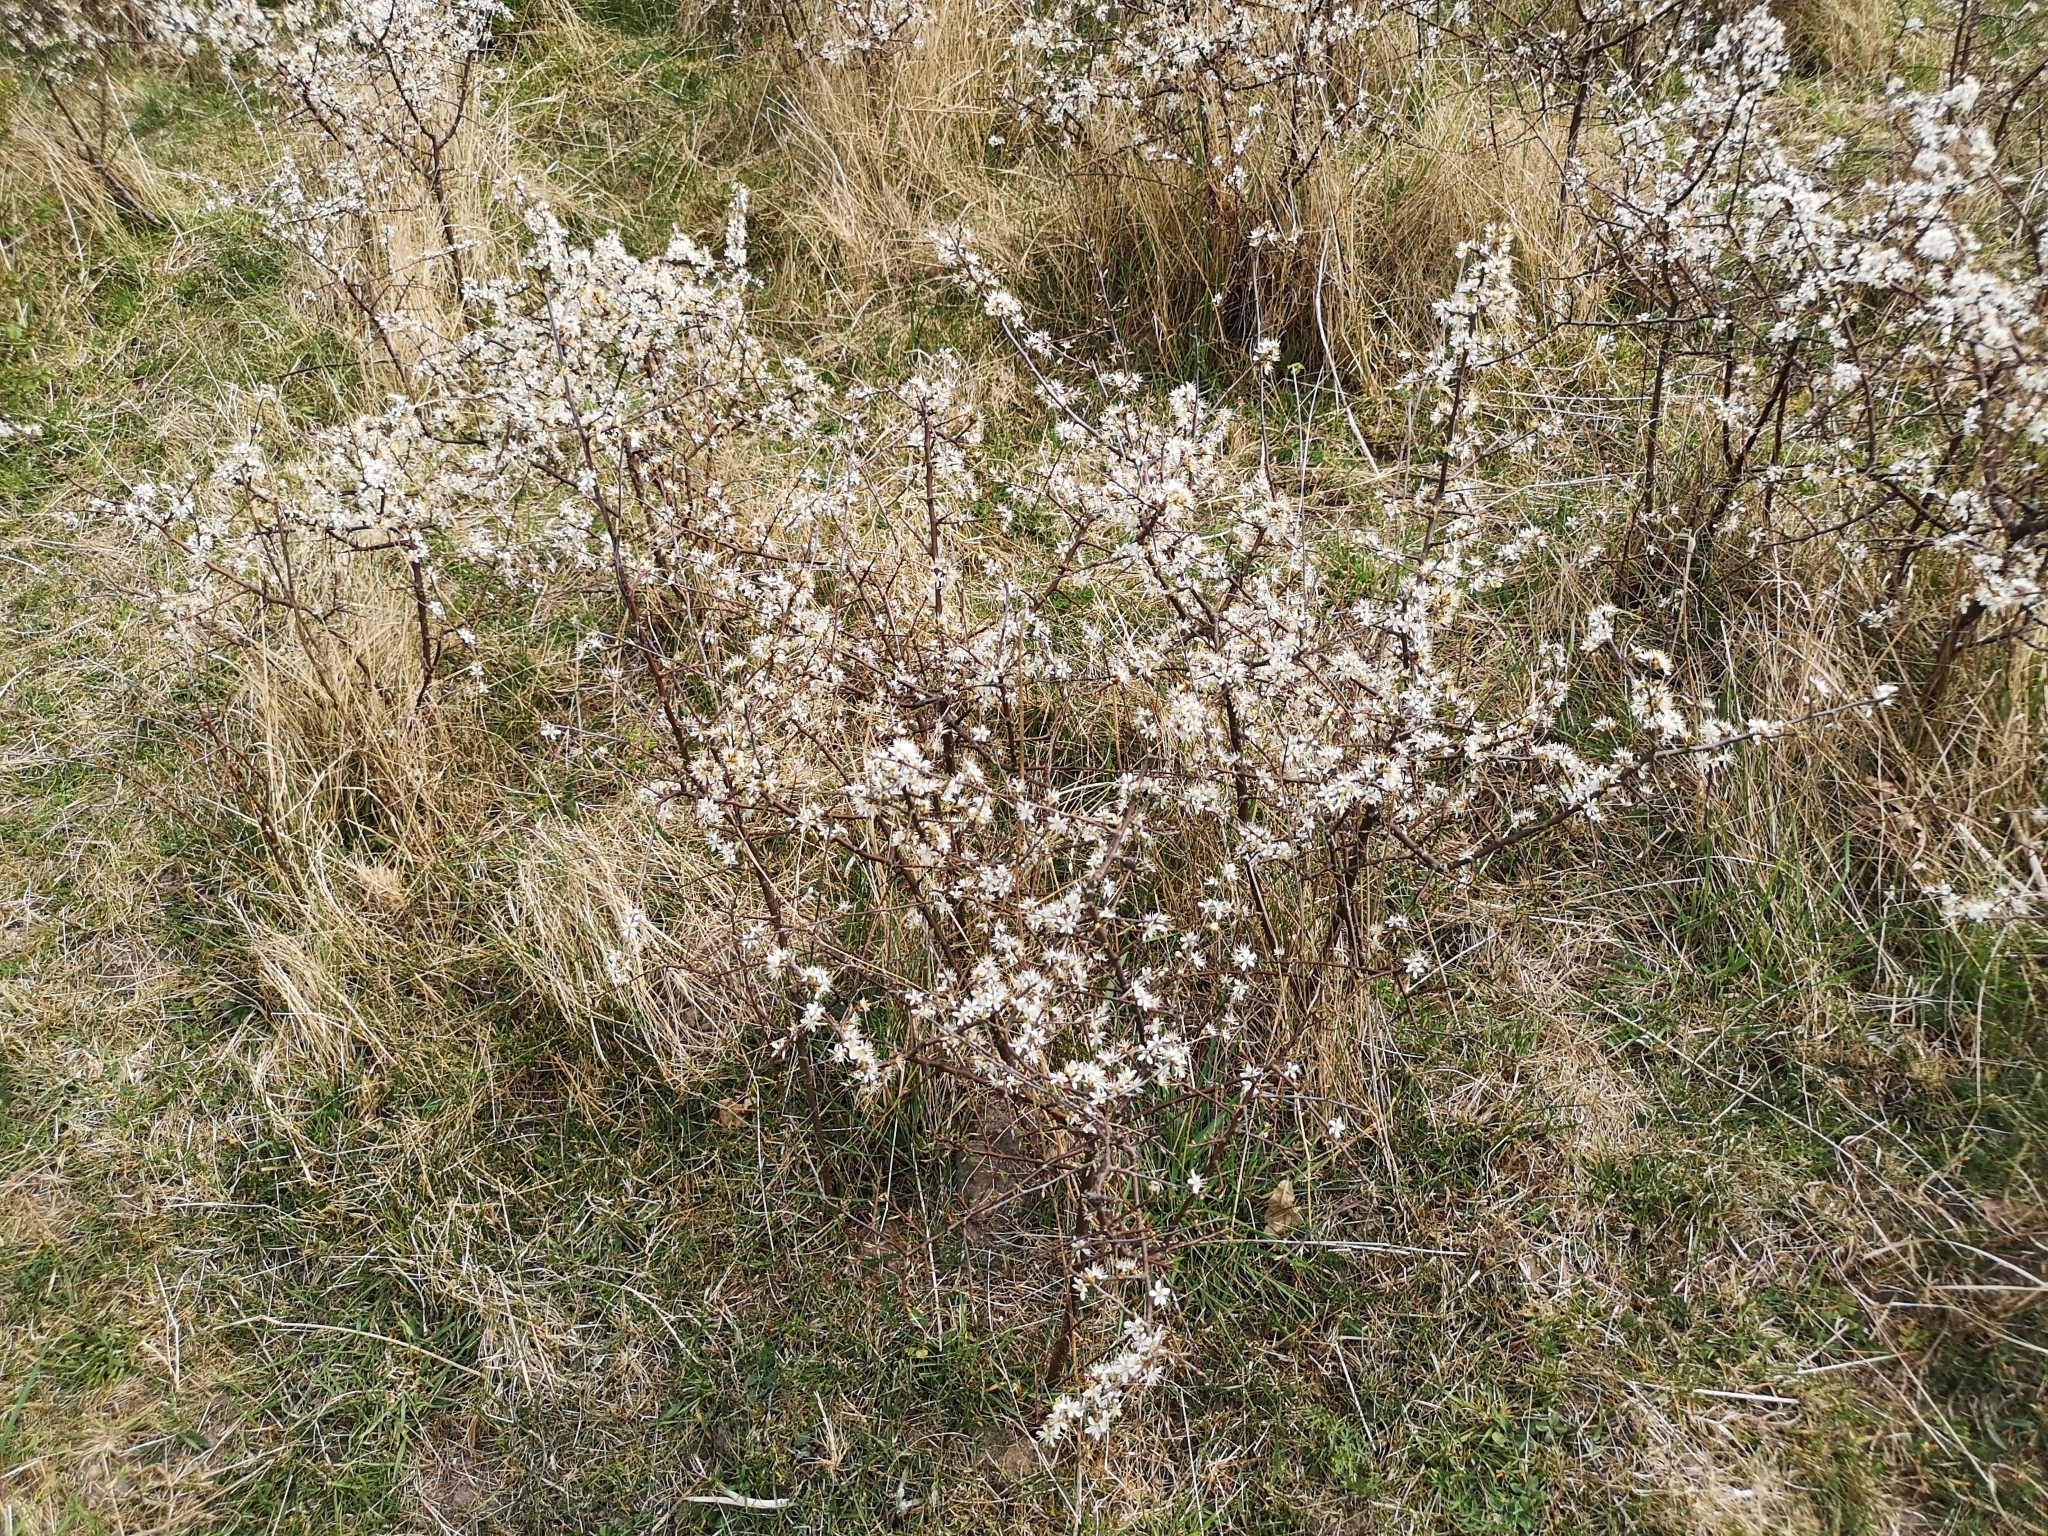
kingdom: Plantae
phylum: Tracheophyta
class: Magnoliopsida
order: Rosales
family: Rosaceae
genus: Prunus
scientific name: Prunus spinosa
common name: Blackthorn
